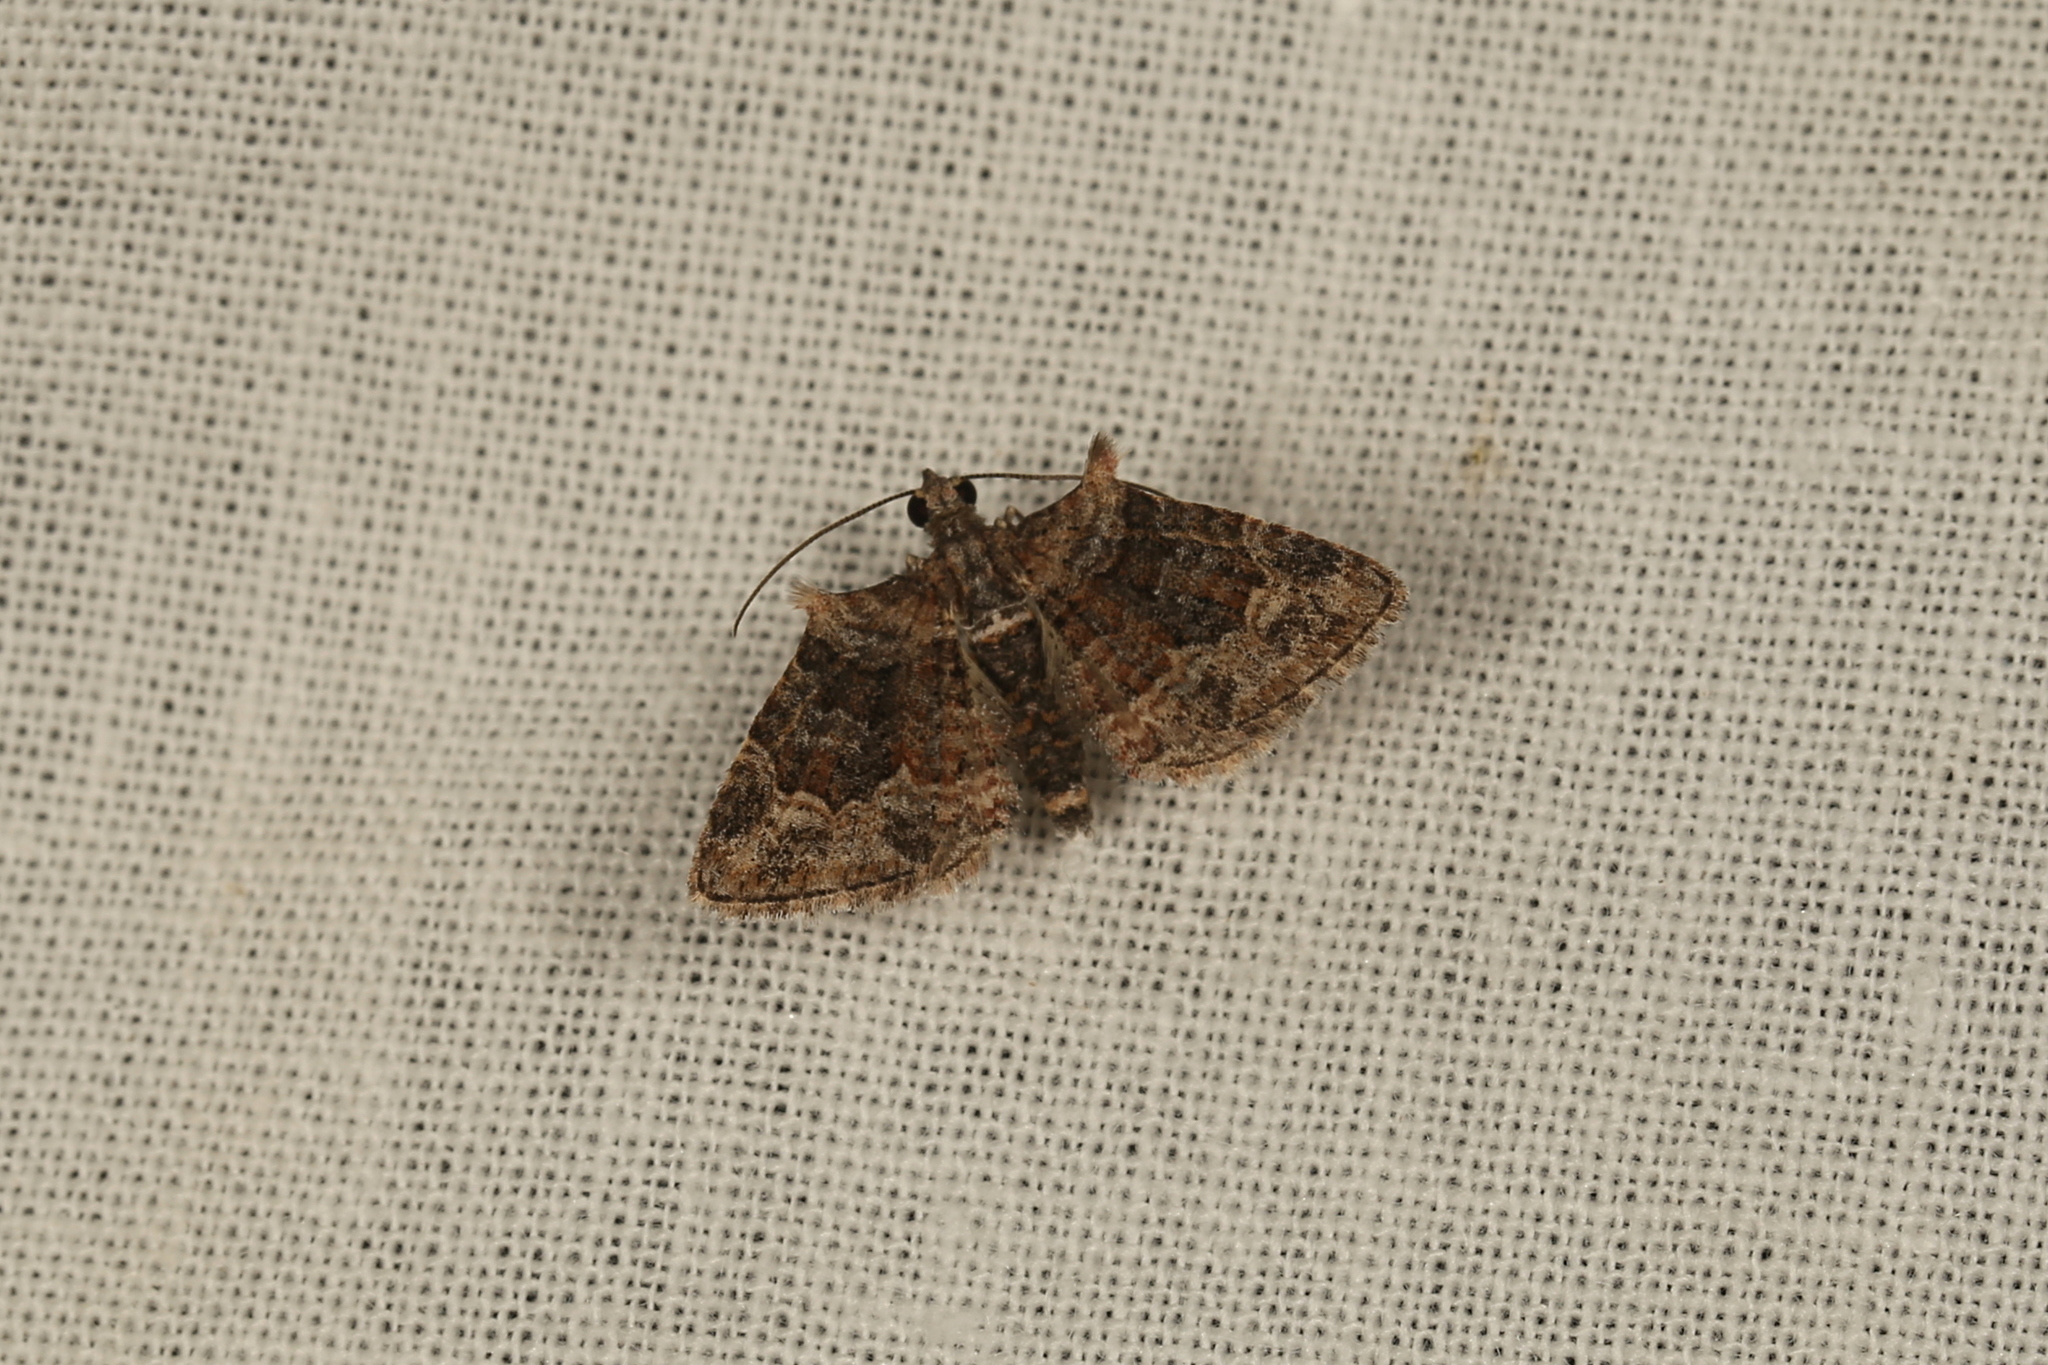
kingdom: Animalia
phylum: Arthropoda
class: Insecta
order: Lepidoptera
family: Geometridae
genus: Phrissogonus
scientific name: Phrissogonus laticostata
